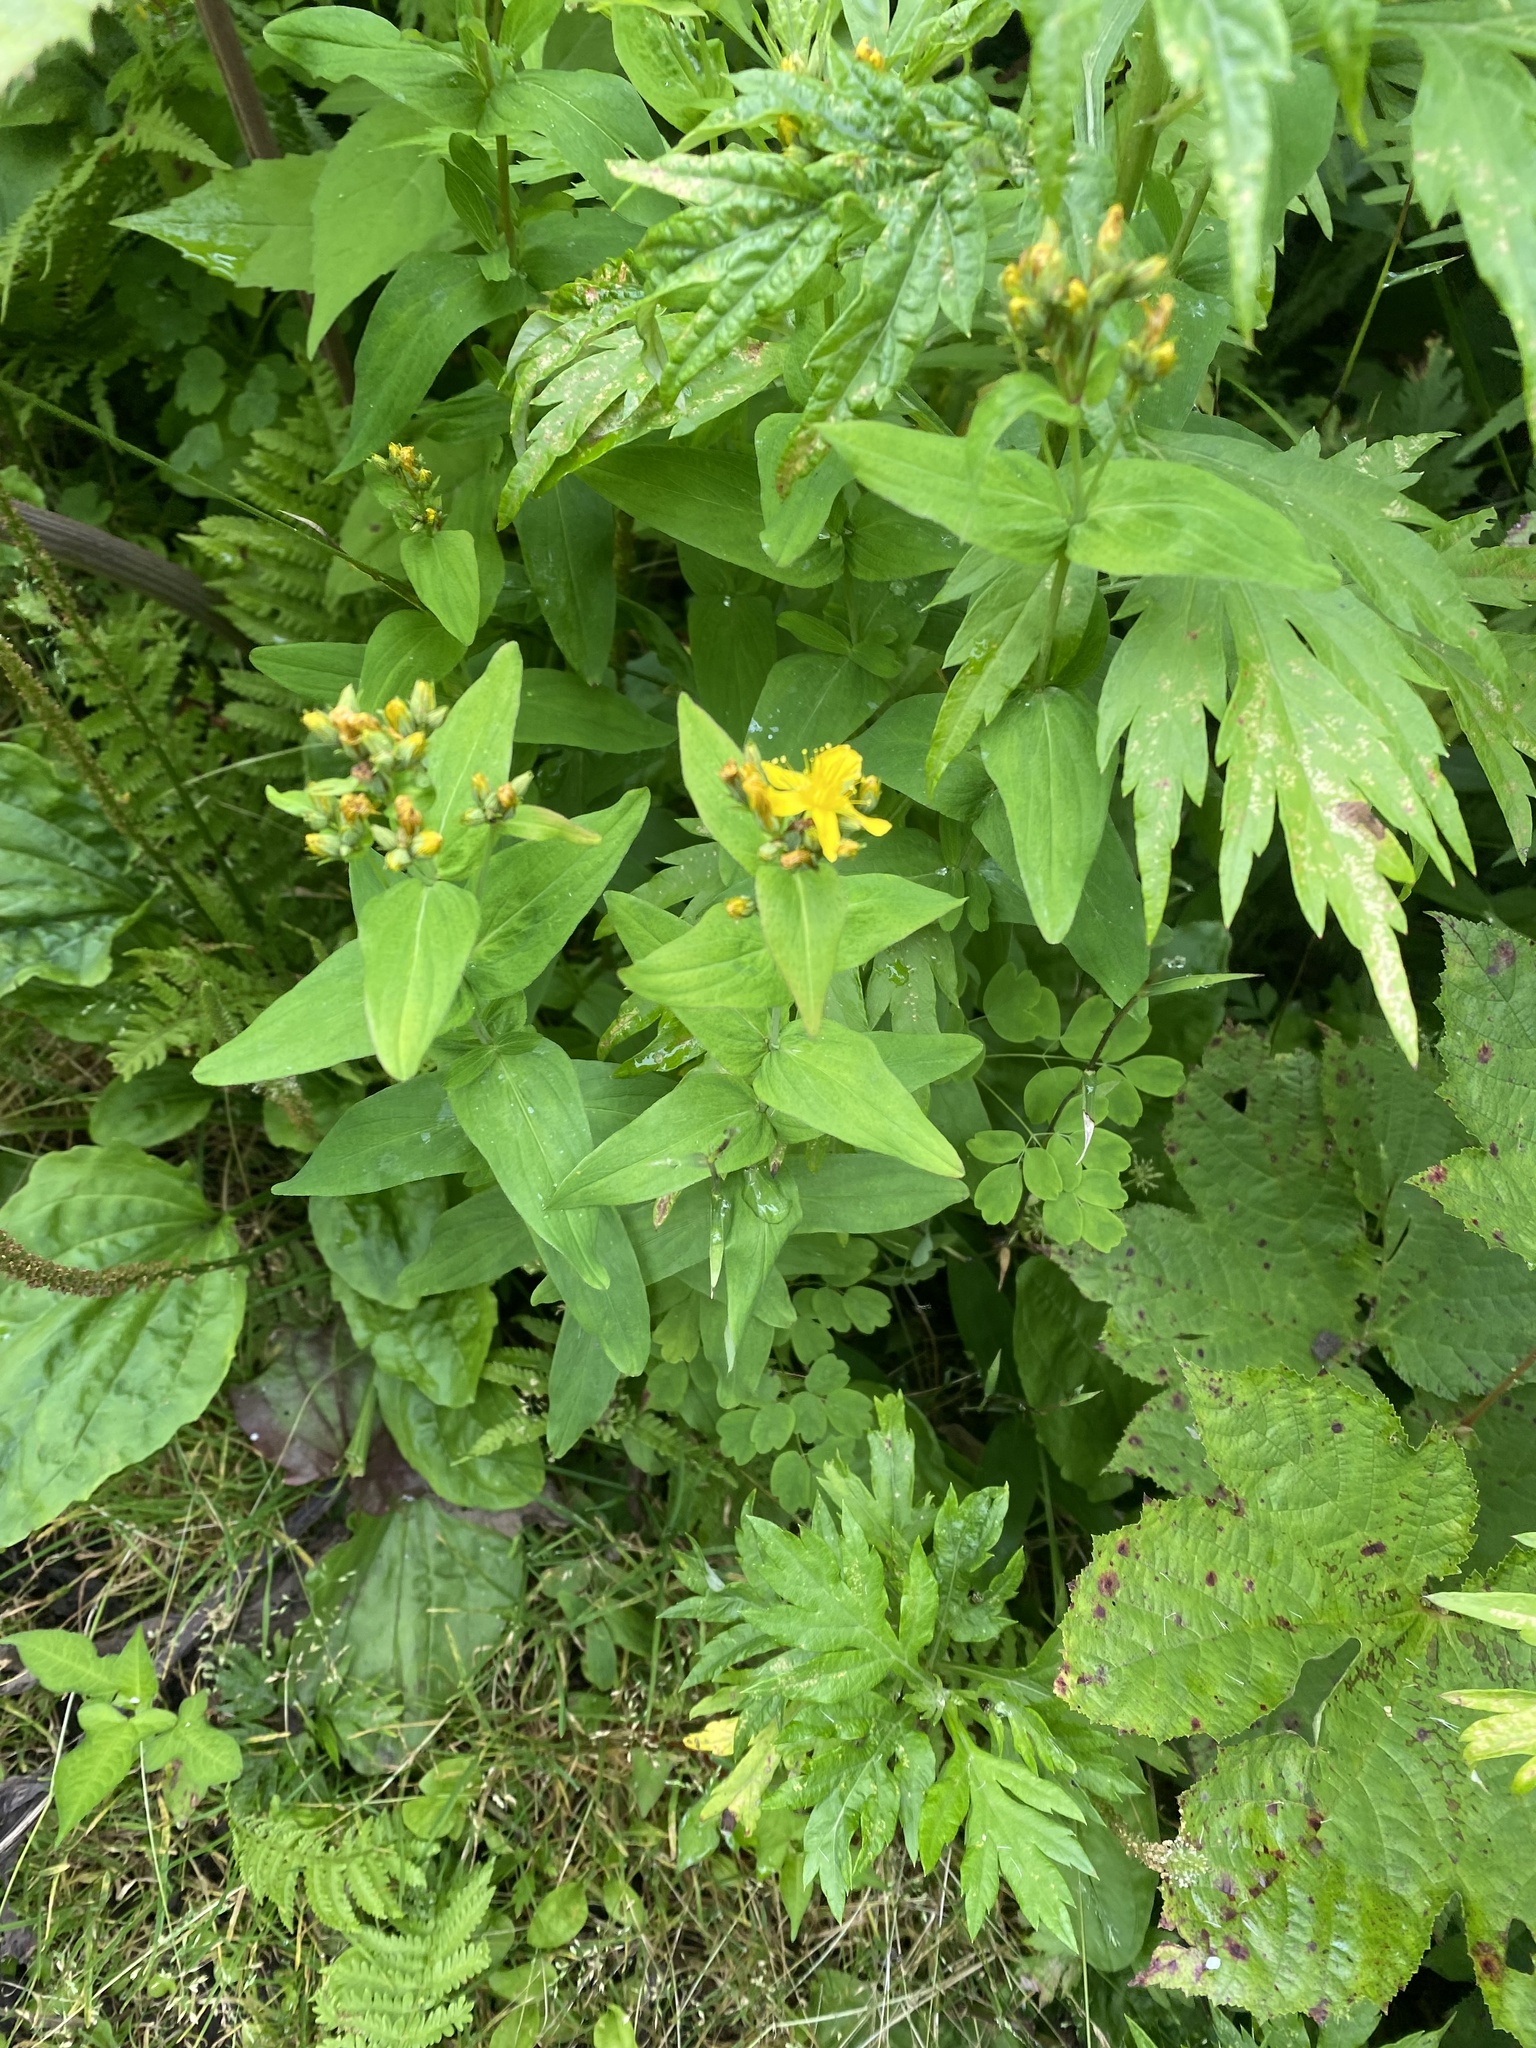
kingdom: Plantae
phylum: Tracheophyta
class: Magnoliopsida
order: Malpighiales
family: Hypericaceae
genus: Hypericum
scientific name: Hypericum kamtschaticum
